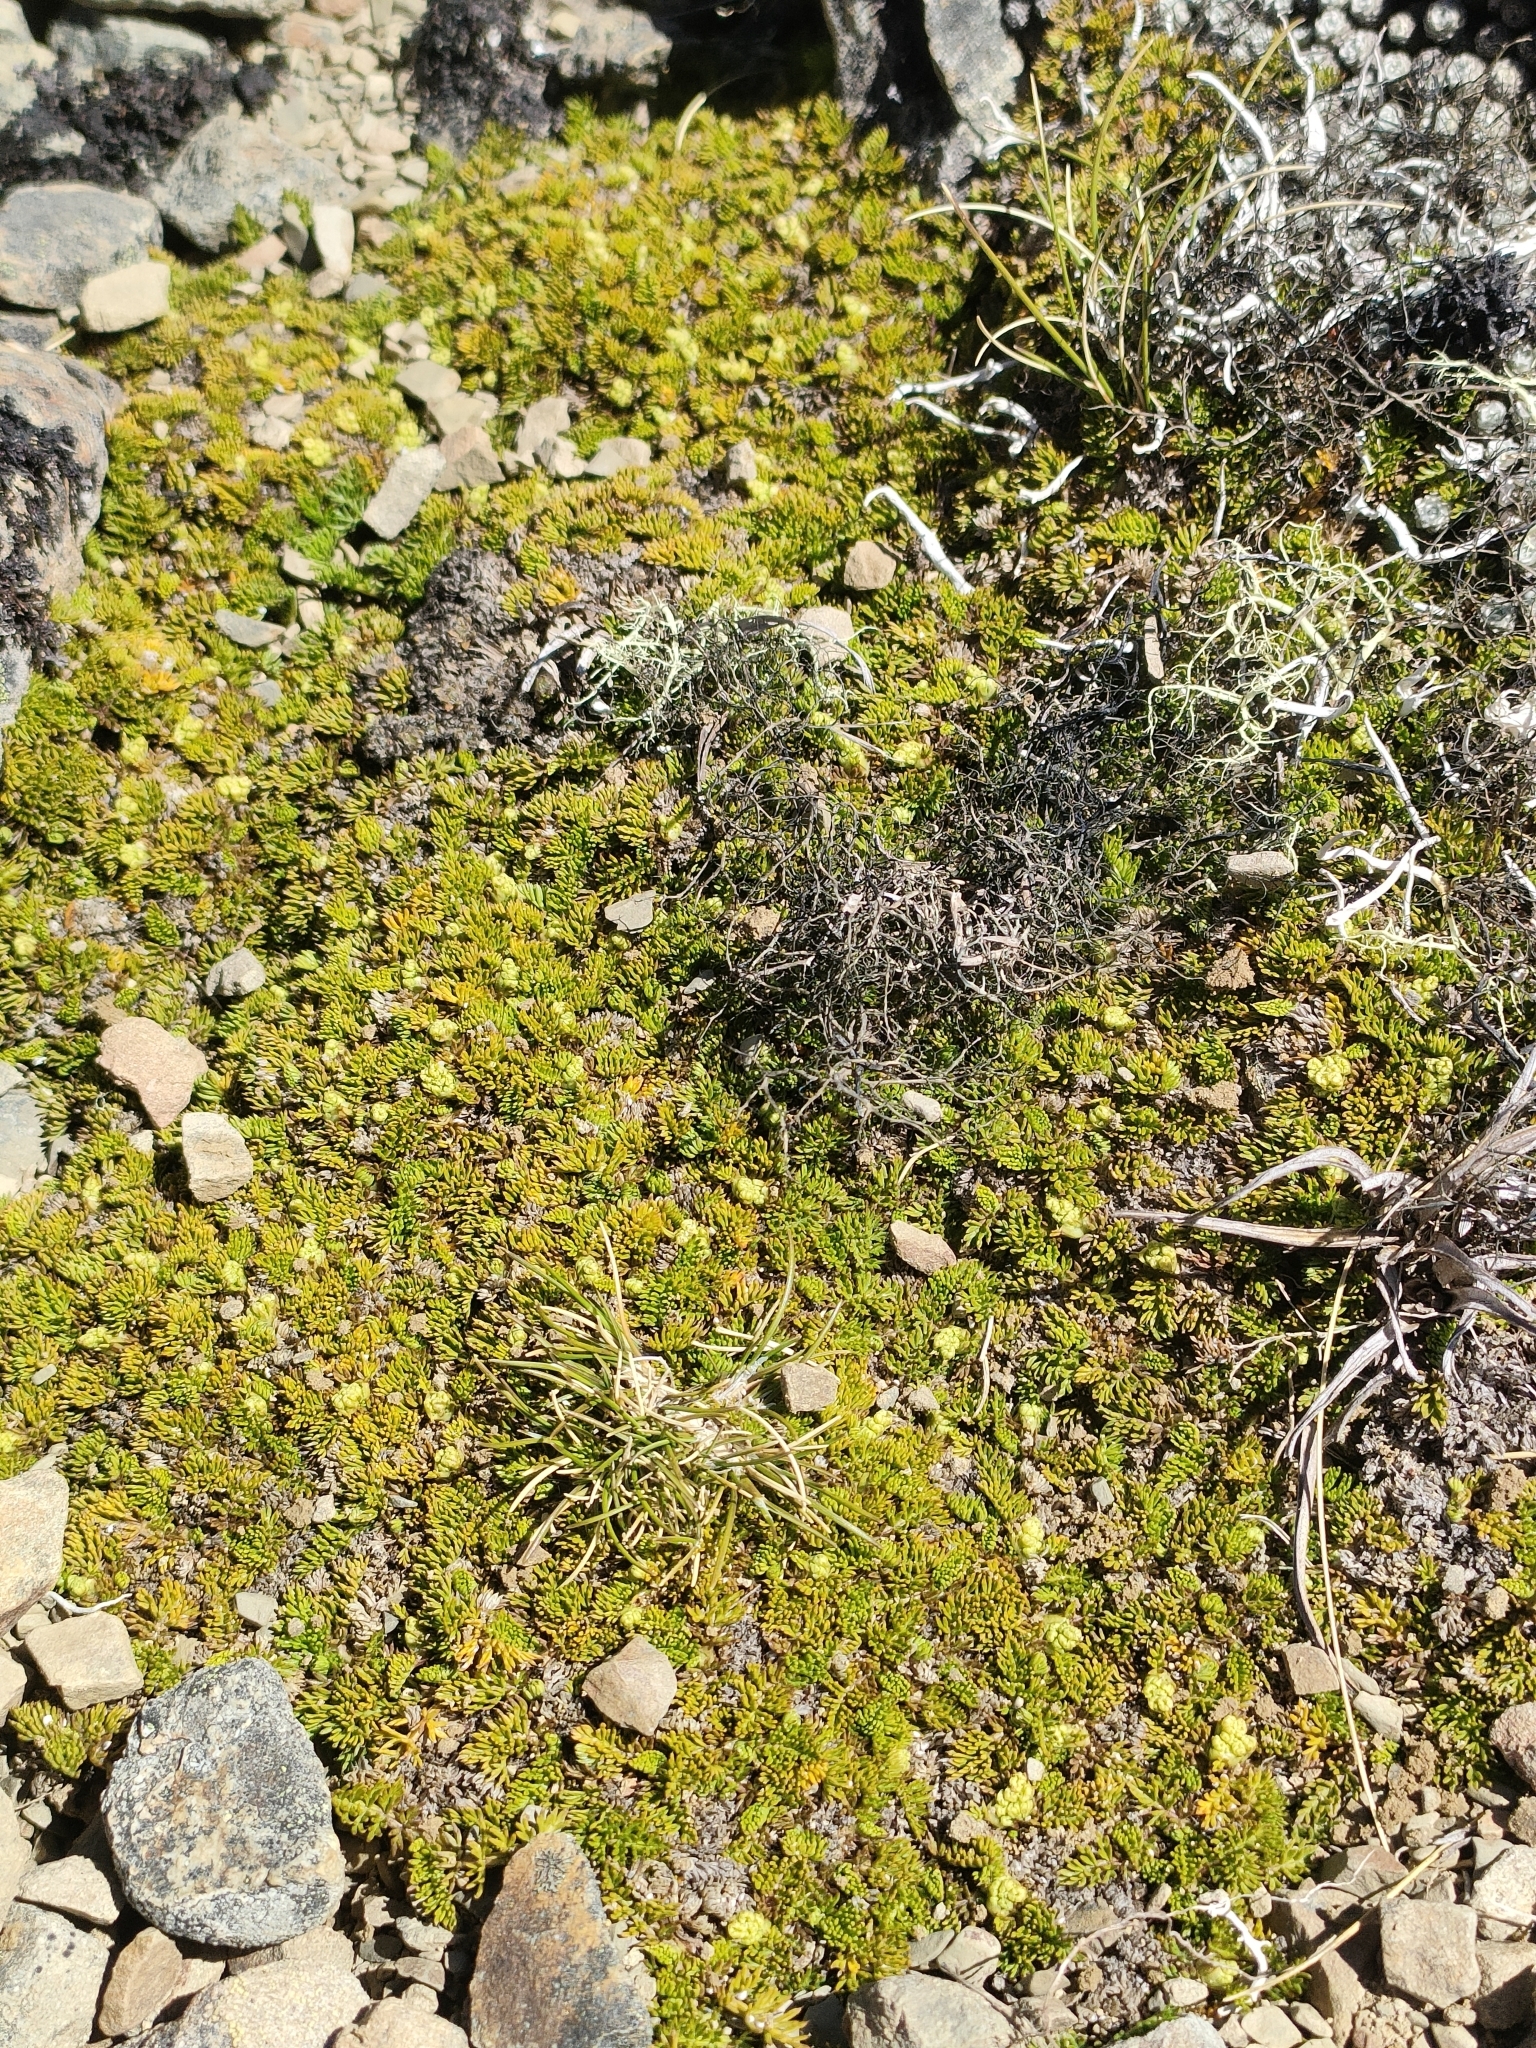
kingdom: Plantae
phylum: Tracheophyta
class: Magnoliopsida
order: Apiales
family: Apiaceae
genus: Anisotome
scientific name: Anisotome imbricata
